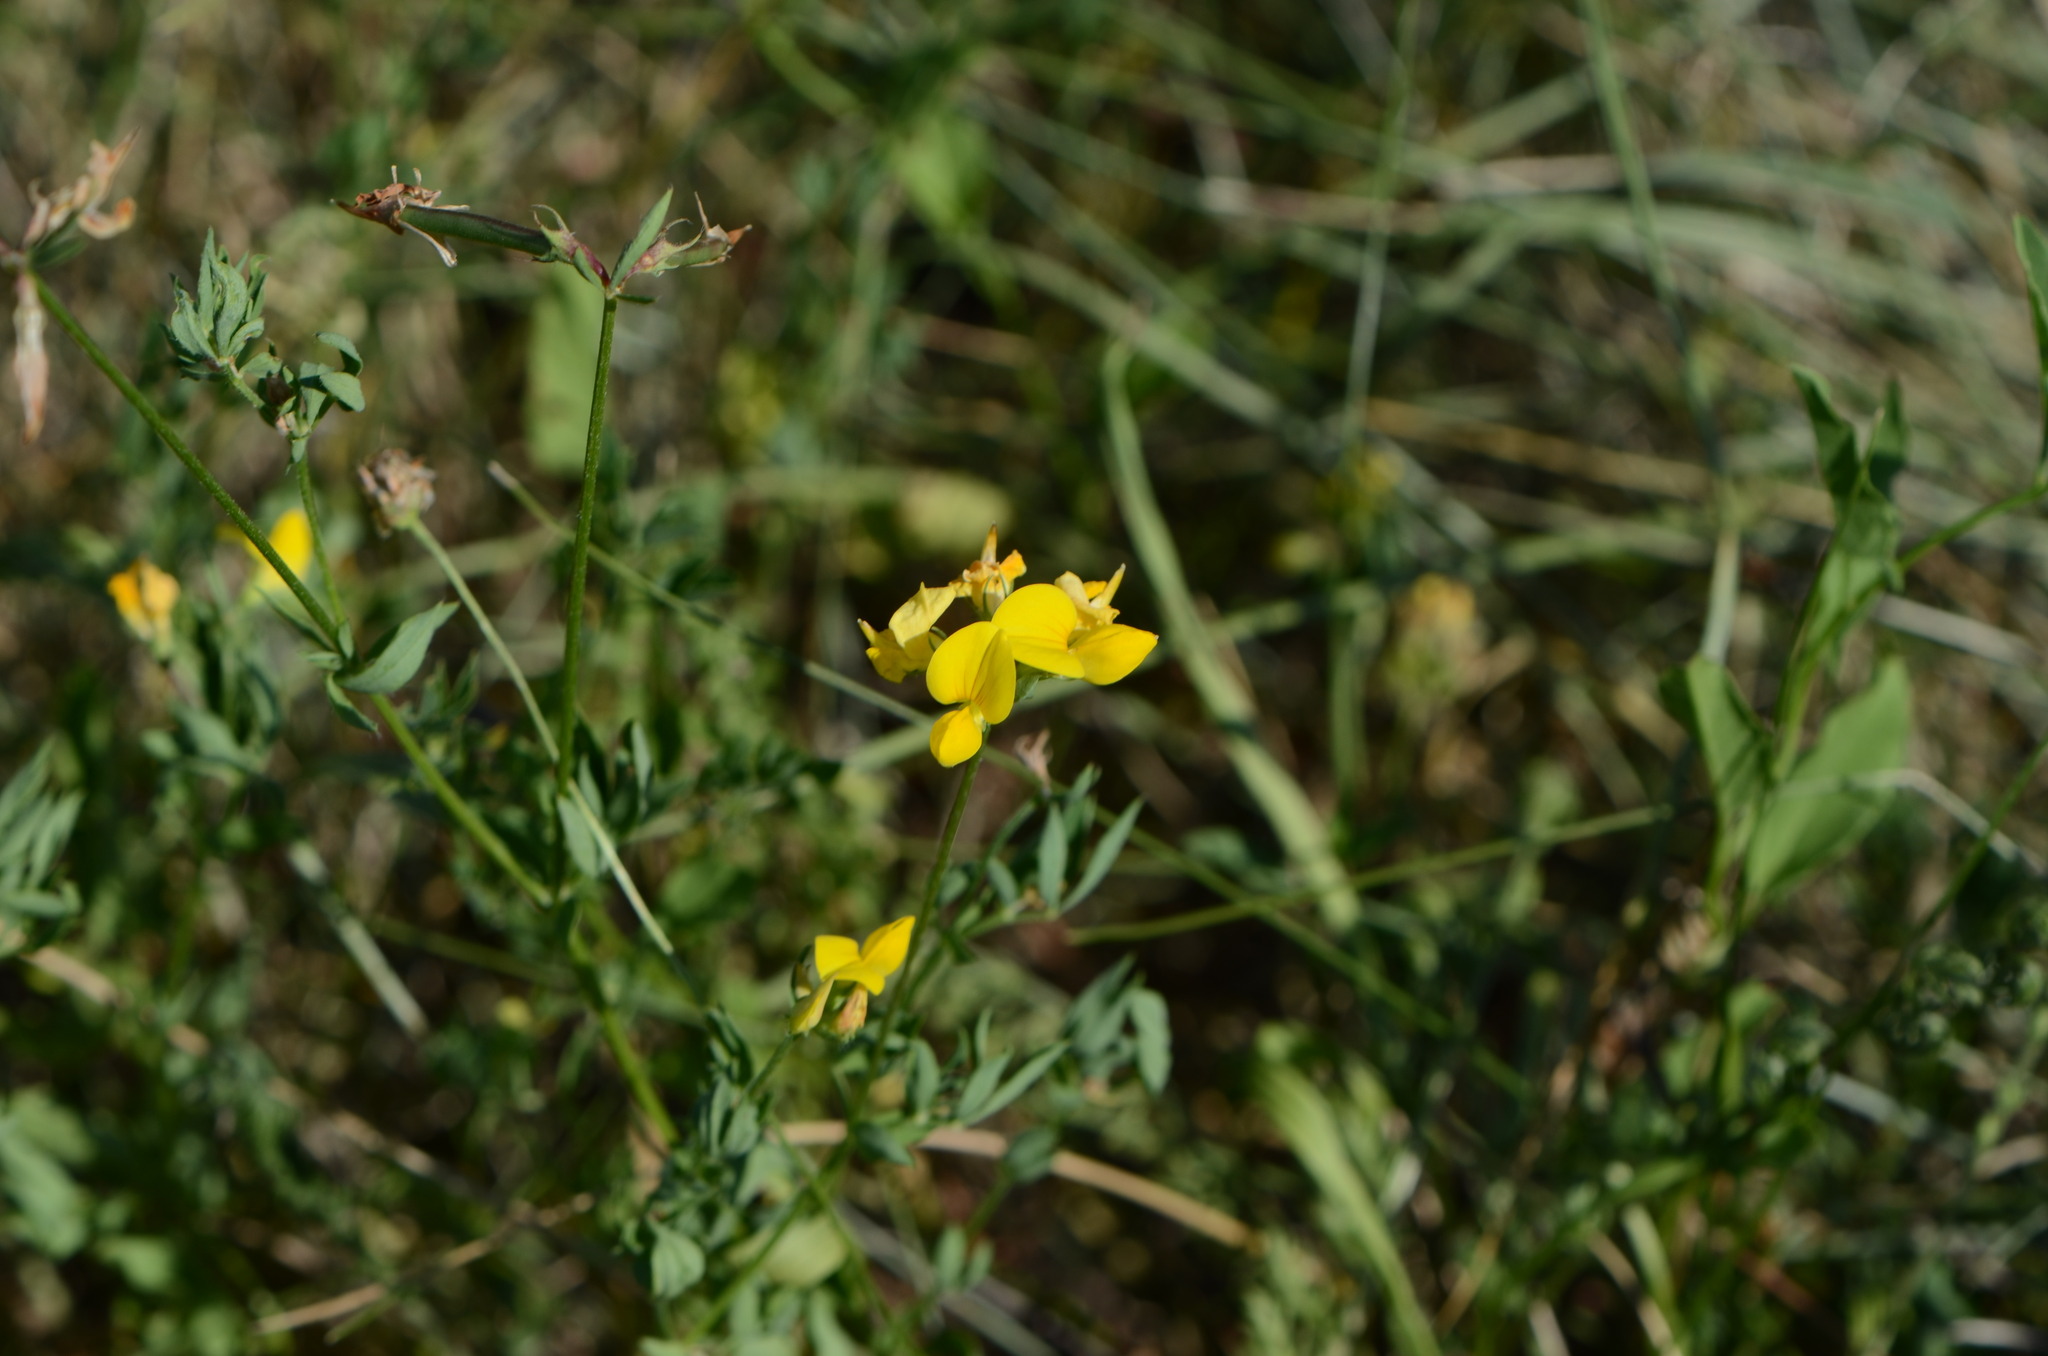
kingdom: Plantae
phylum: Tracheophyta
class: Magnoliopsida
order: Fabales
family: Fabaceae
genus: Lotus
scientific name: Lotus corniculatus
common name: Common bird's-foot-trefoil
